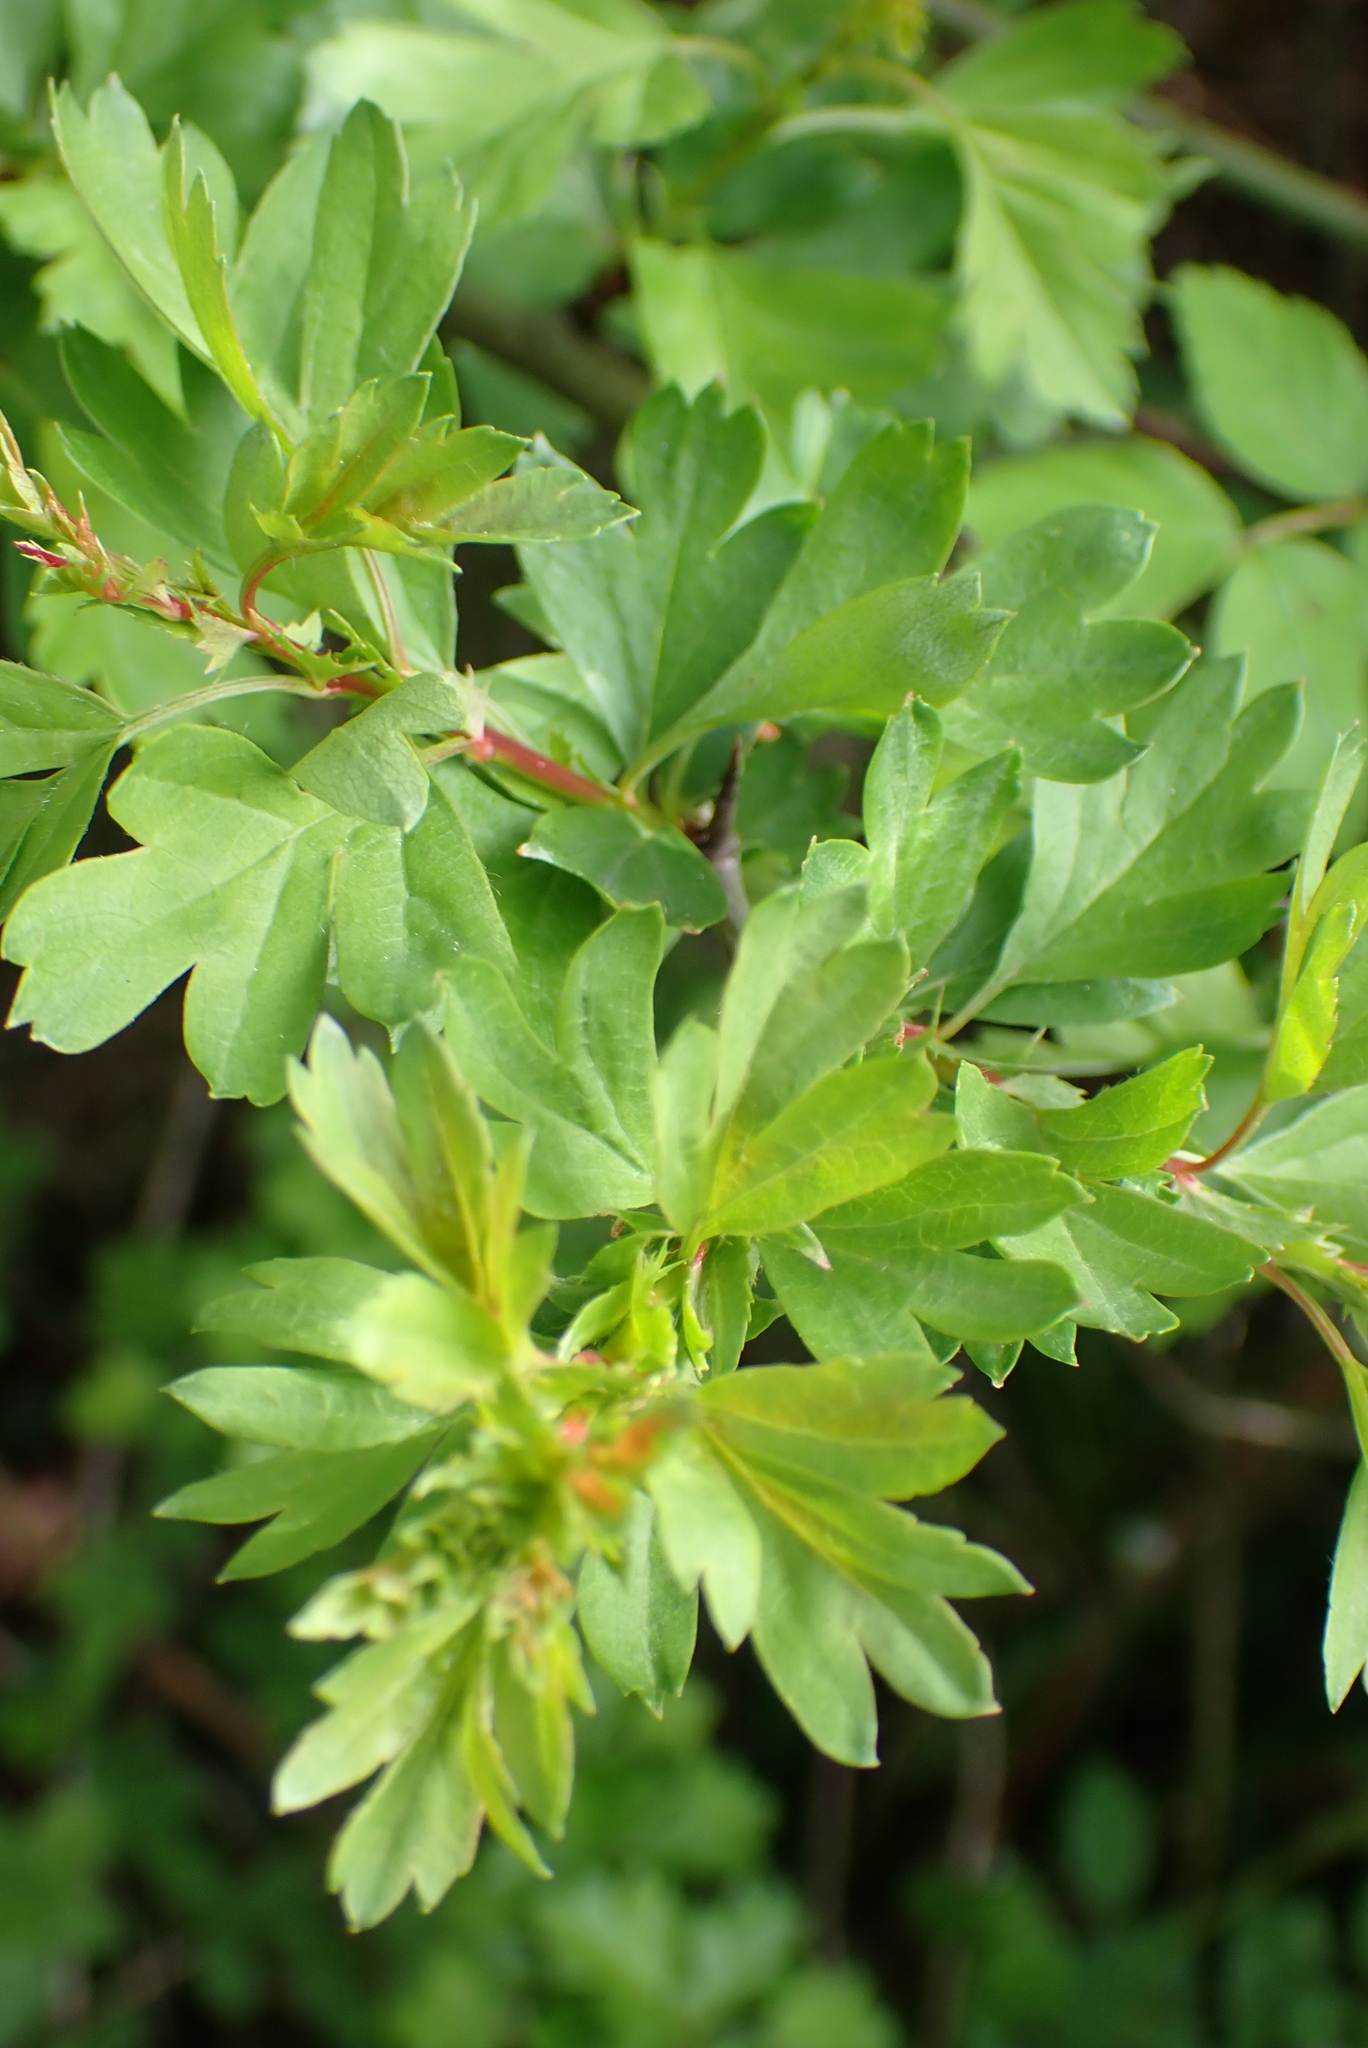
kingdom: Plantae
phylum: Tracheophyta
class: Magnoliopsida
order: Rosales
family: Rosaceae
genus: Crataegus
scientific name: Crataegus monogyna
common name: Hawthorn
